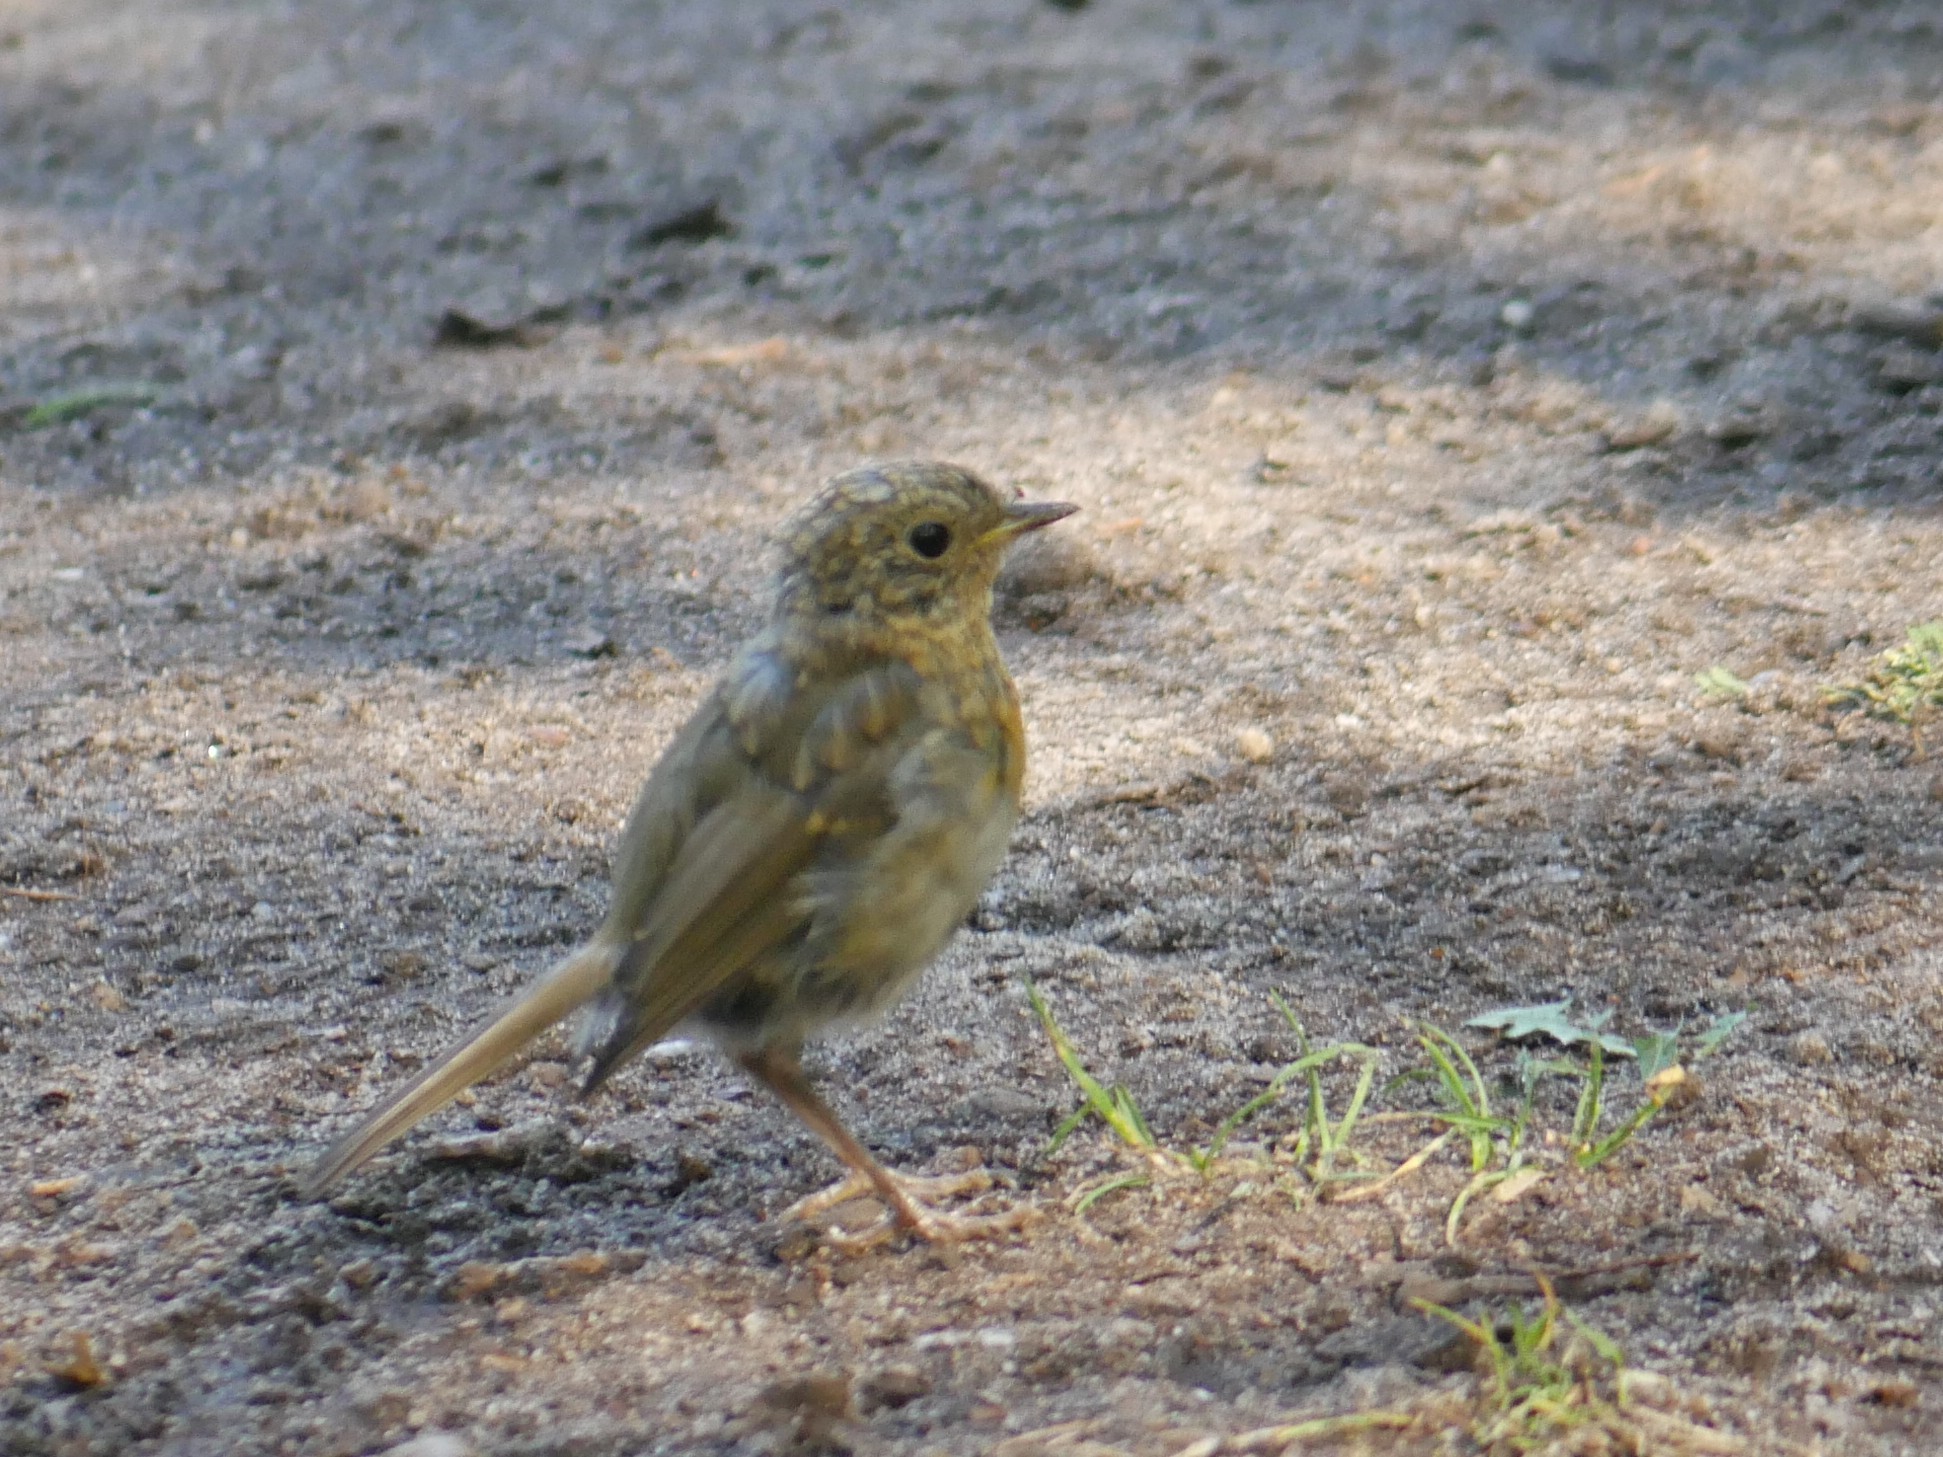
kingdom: Animalia
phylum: Chordata
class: Aves
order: Passeriformes
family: Muscicapidae
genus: Erithacus
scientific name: Erithacus rubecula
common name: European robin
